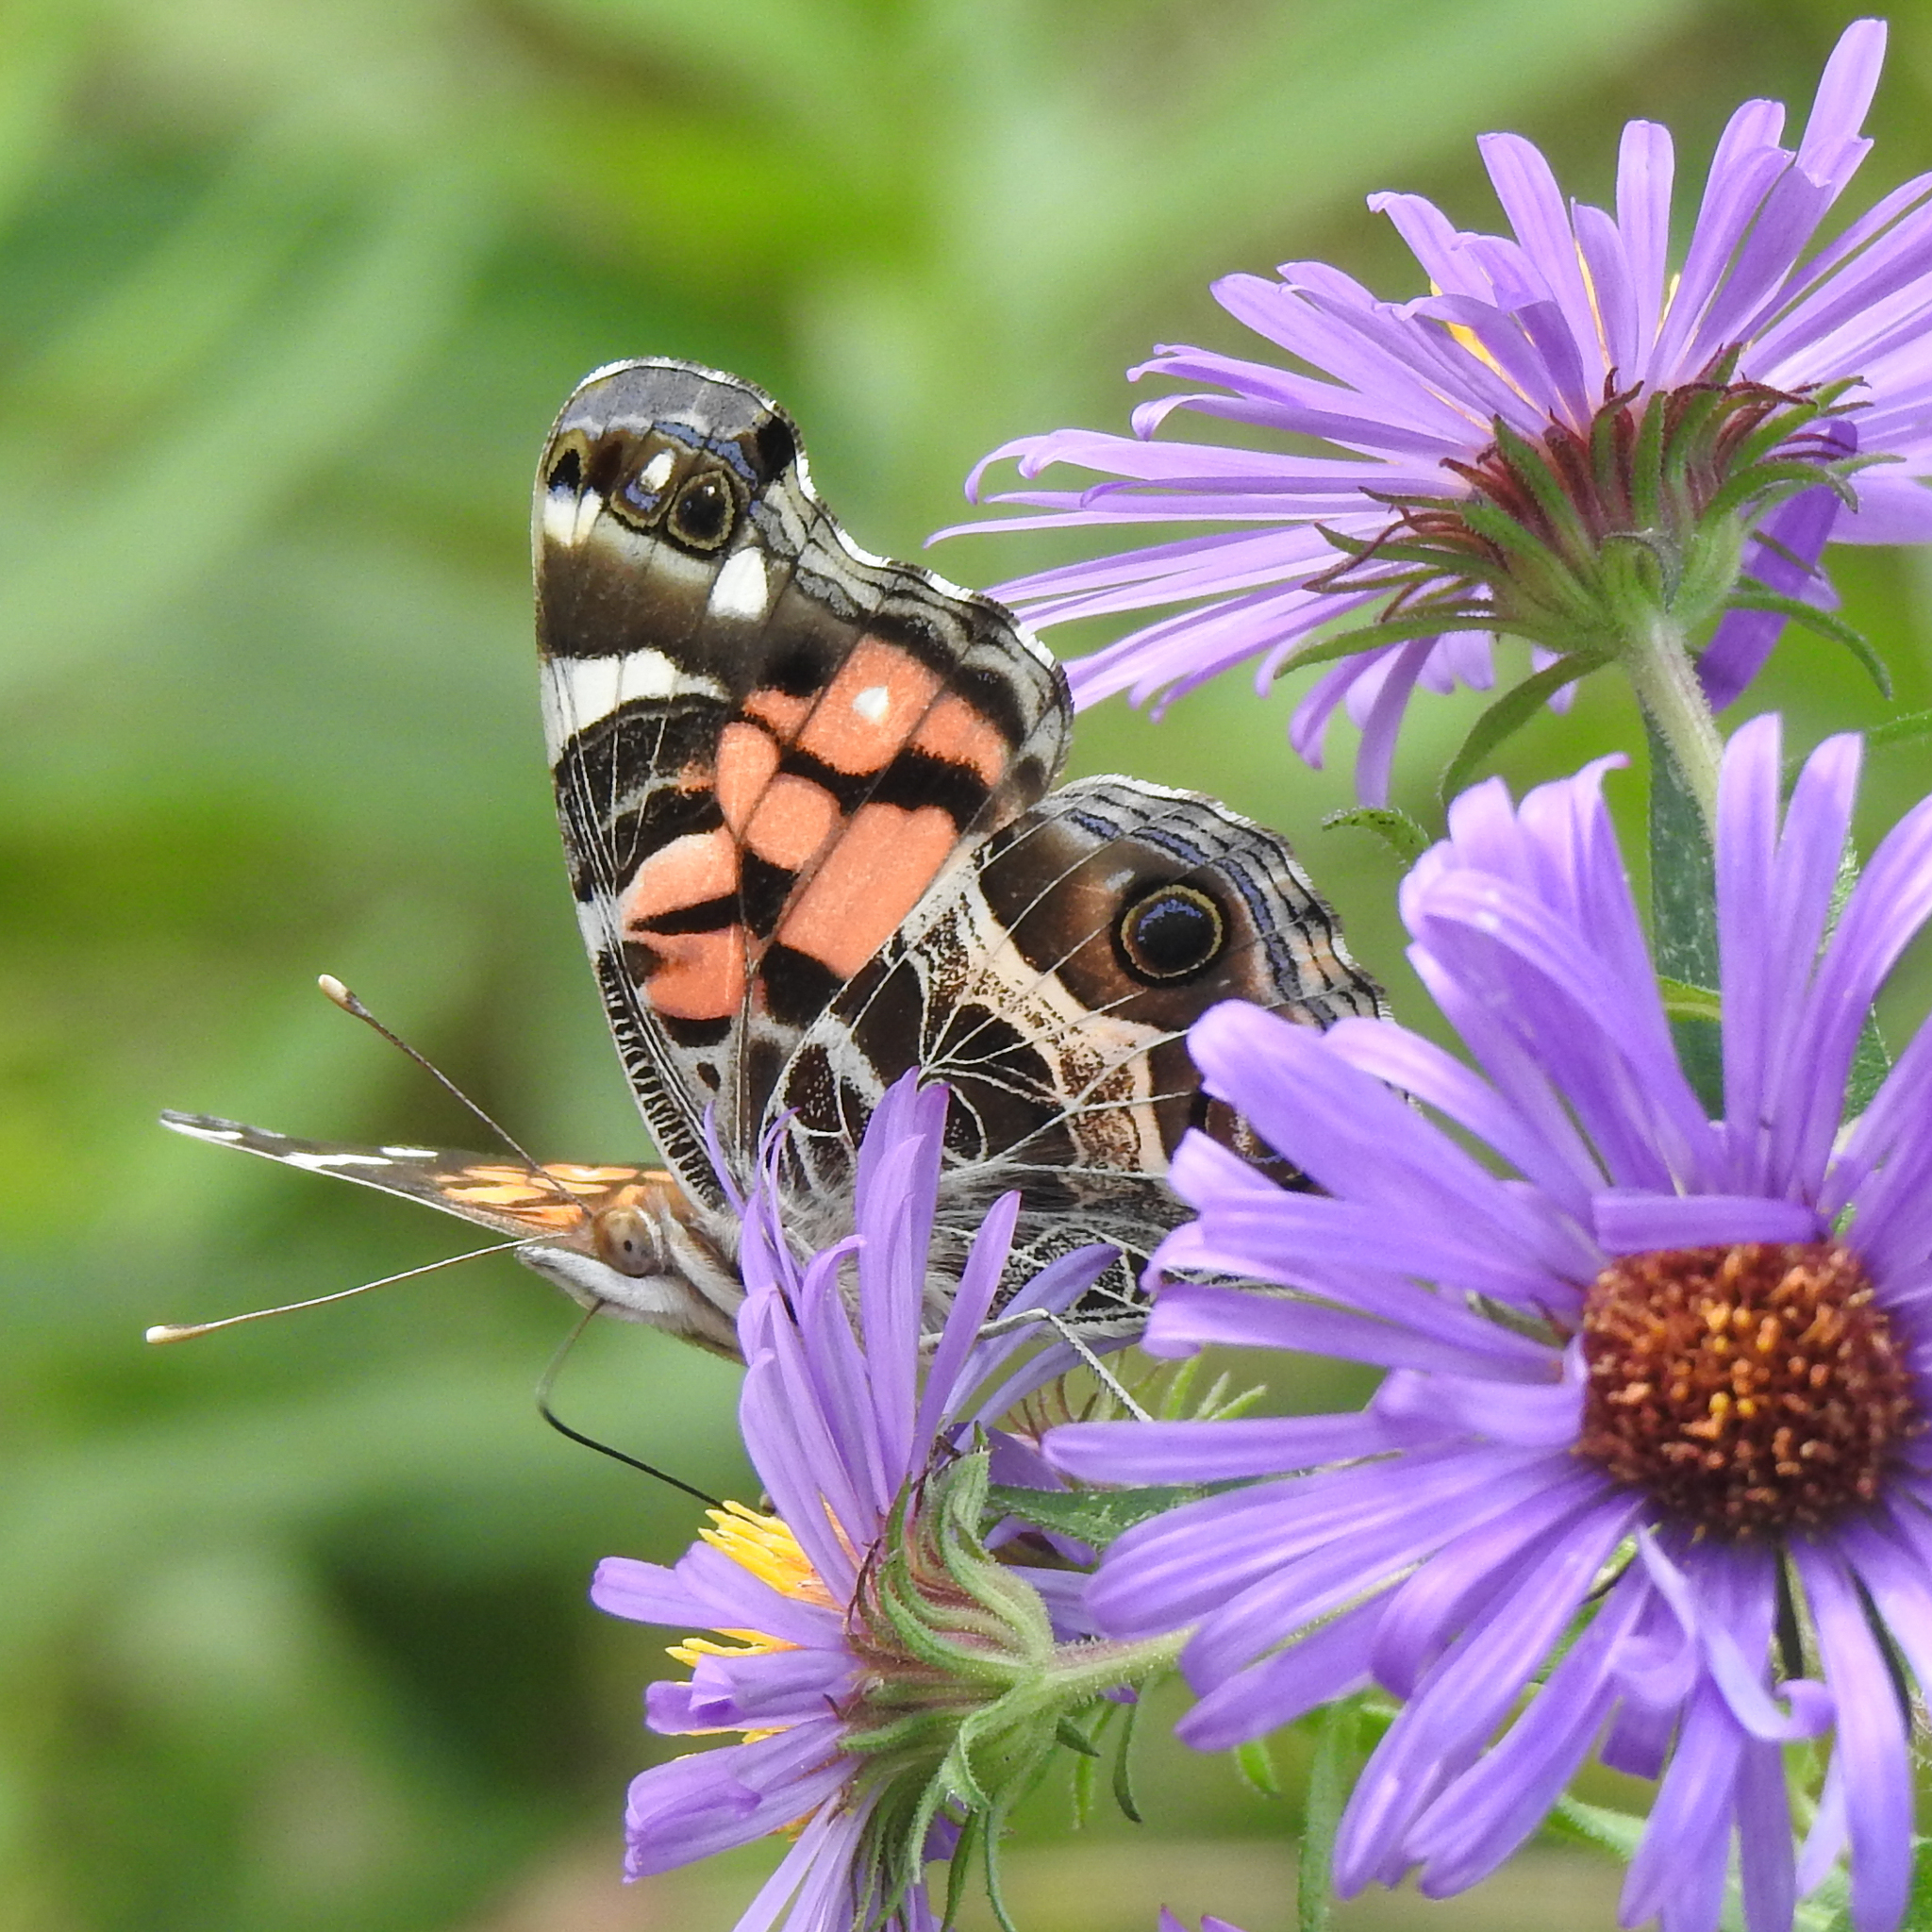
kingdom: Animalia
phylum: Arthropoda
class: Insecta
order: Lepidoptera
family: Nymphalidae
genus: Vanessa
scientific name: Vanessa virginiensis
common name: American lady
